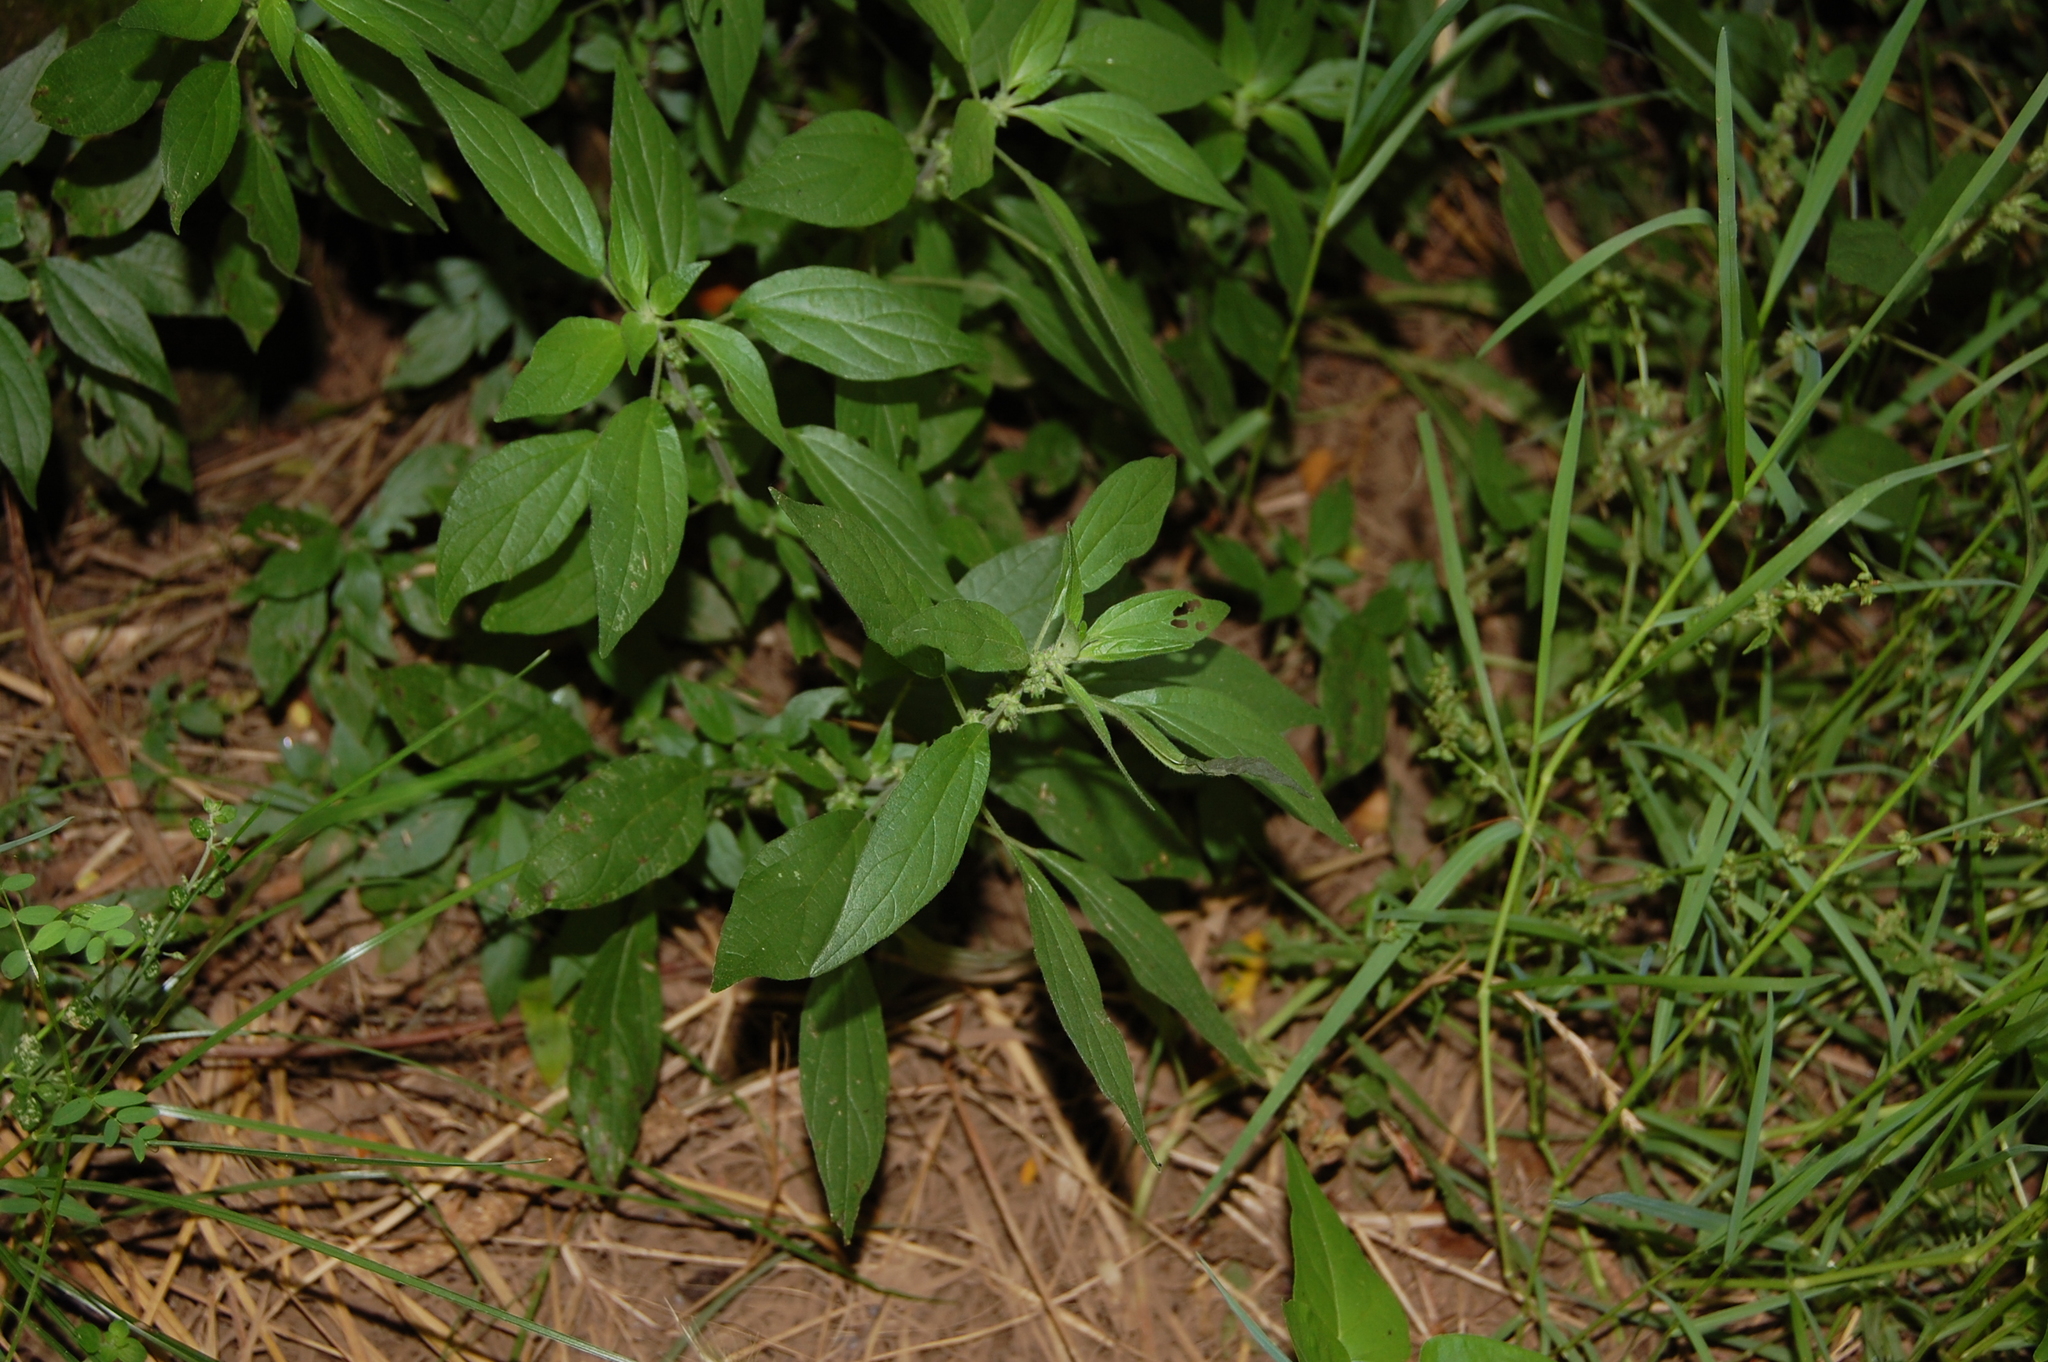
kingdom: Plantae
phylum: Tracheophyta
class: Magnoliopsida
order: Rosales
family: Urticaceae
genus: Parietaria
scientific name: Parietaria judaica
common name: Pellitory-of-the-wall
